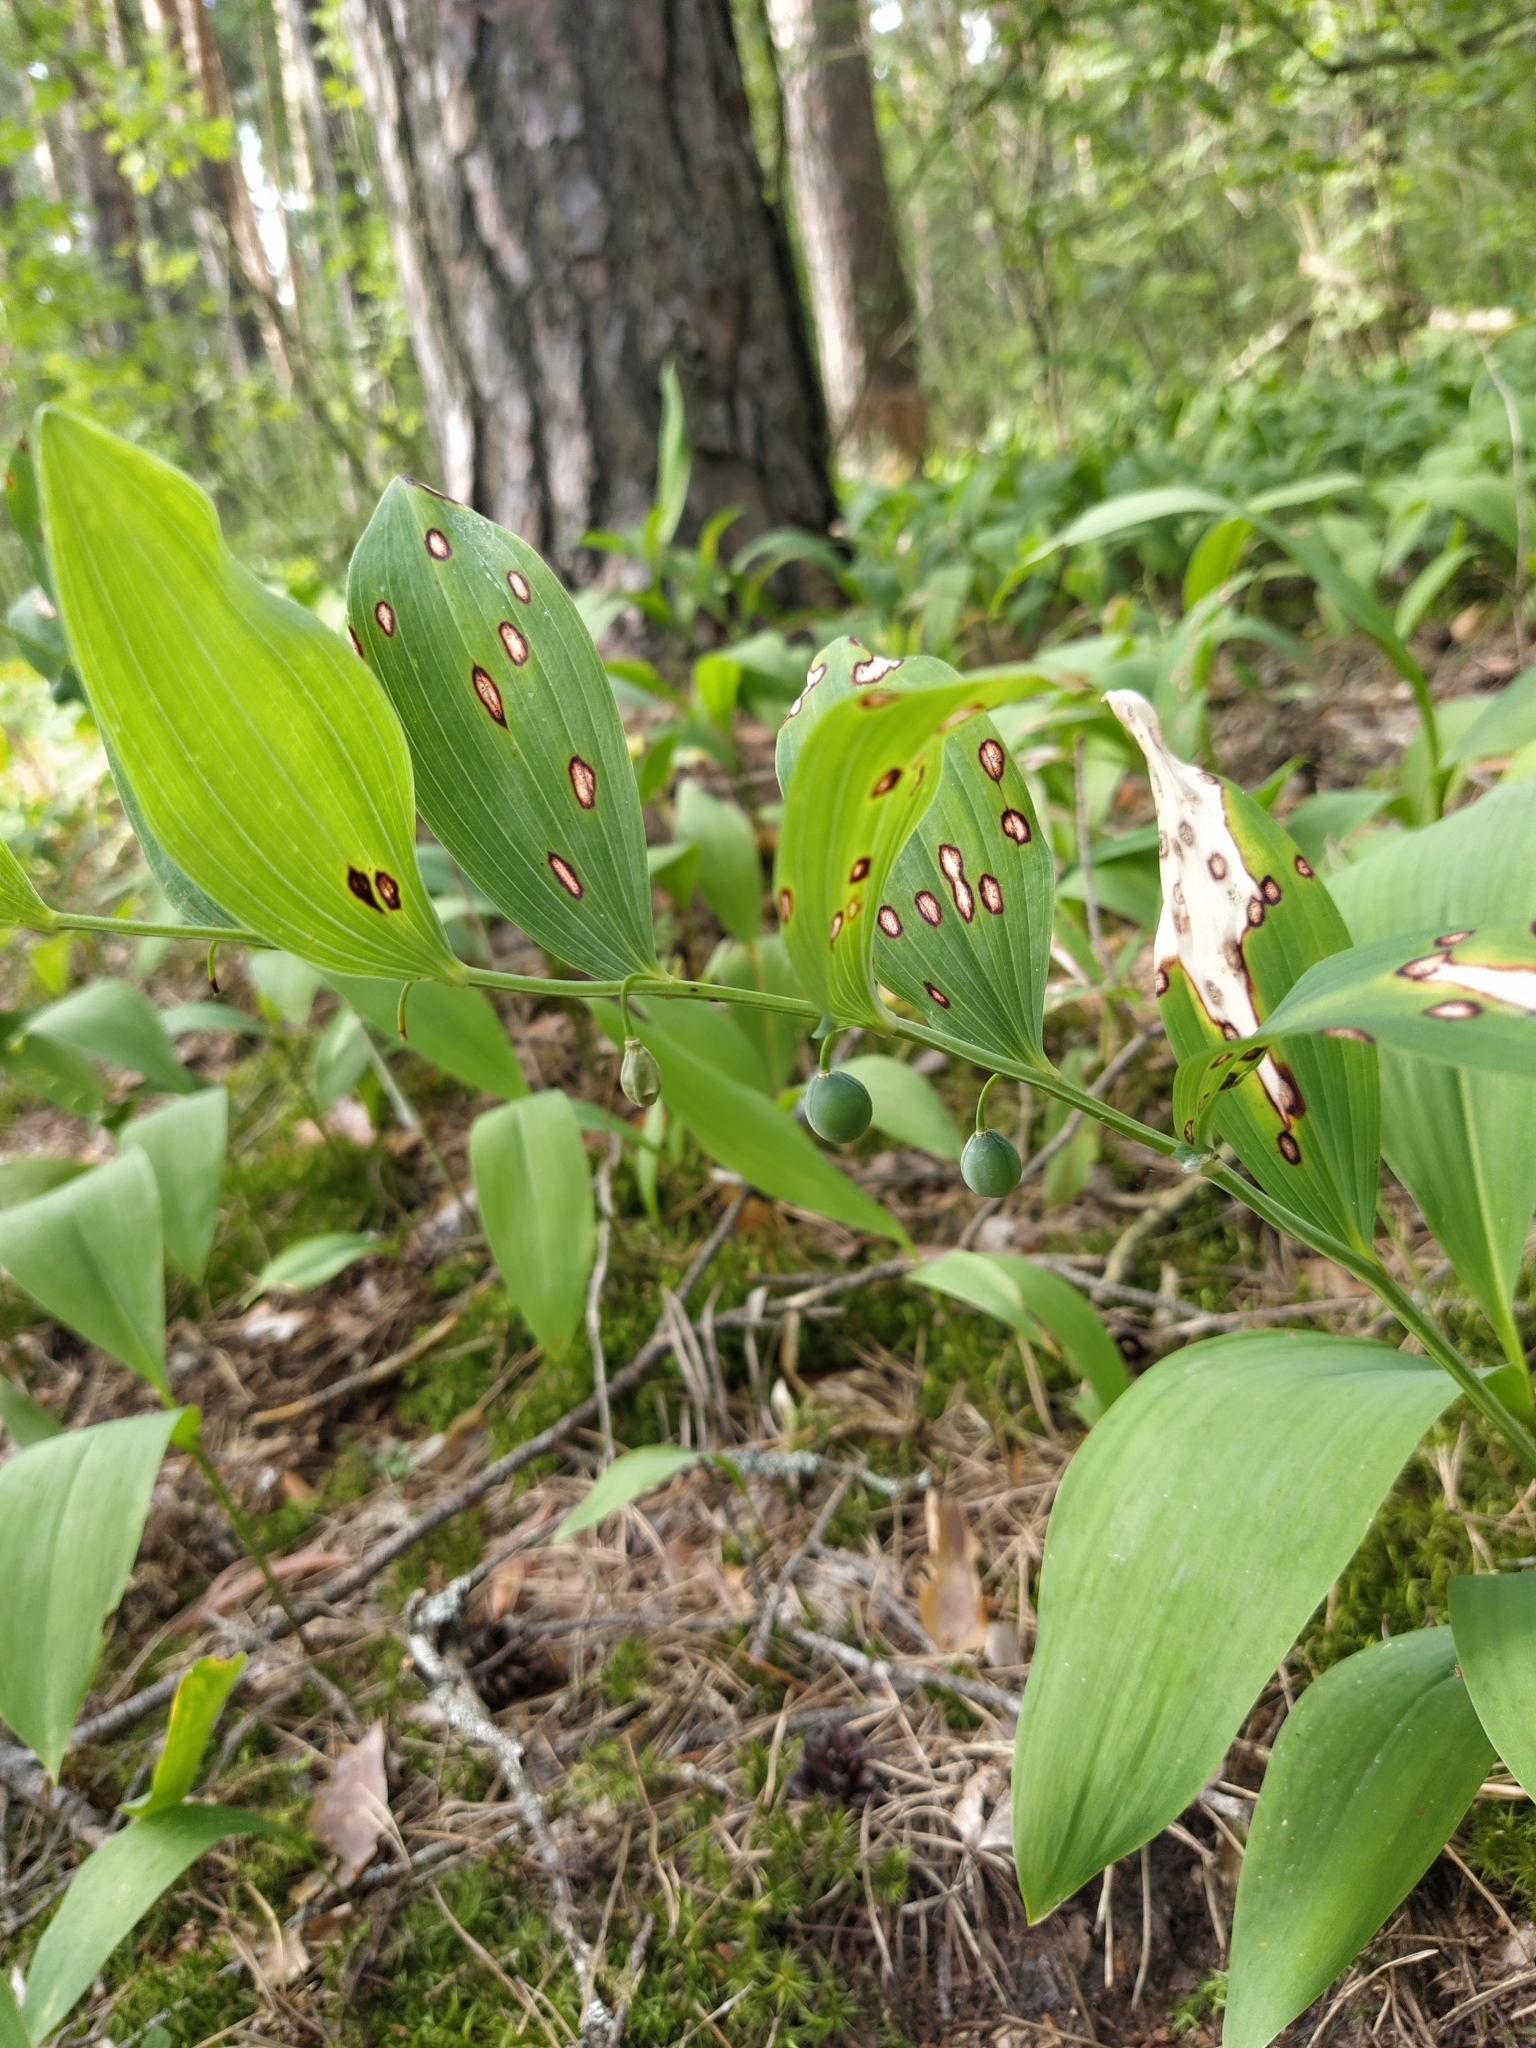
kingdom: Plantae
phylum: Tracheophyta
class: Liliopsida
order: Asparagales
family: Asparagaceae
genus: Polygonatum
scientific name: Polygonatum odoratum
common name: Angular solomon's-seal
